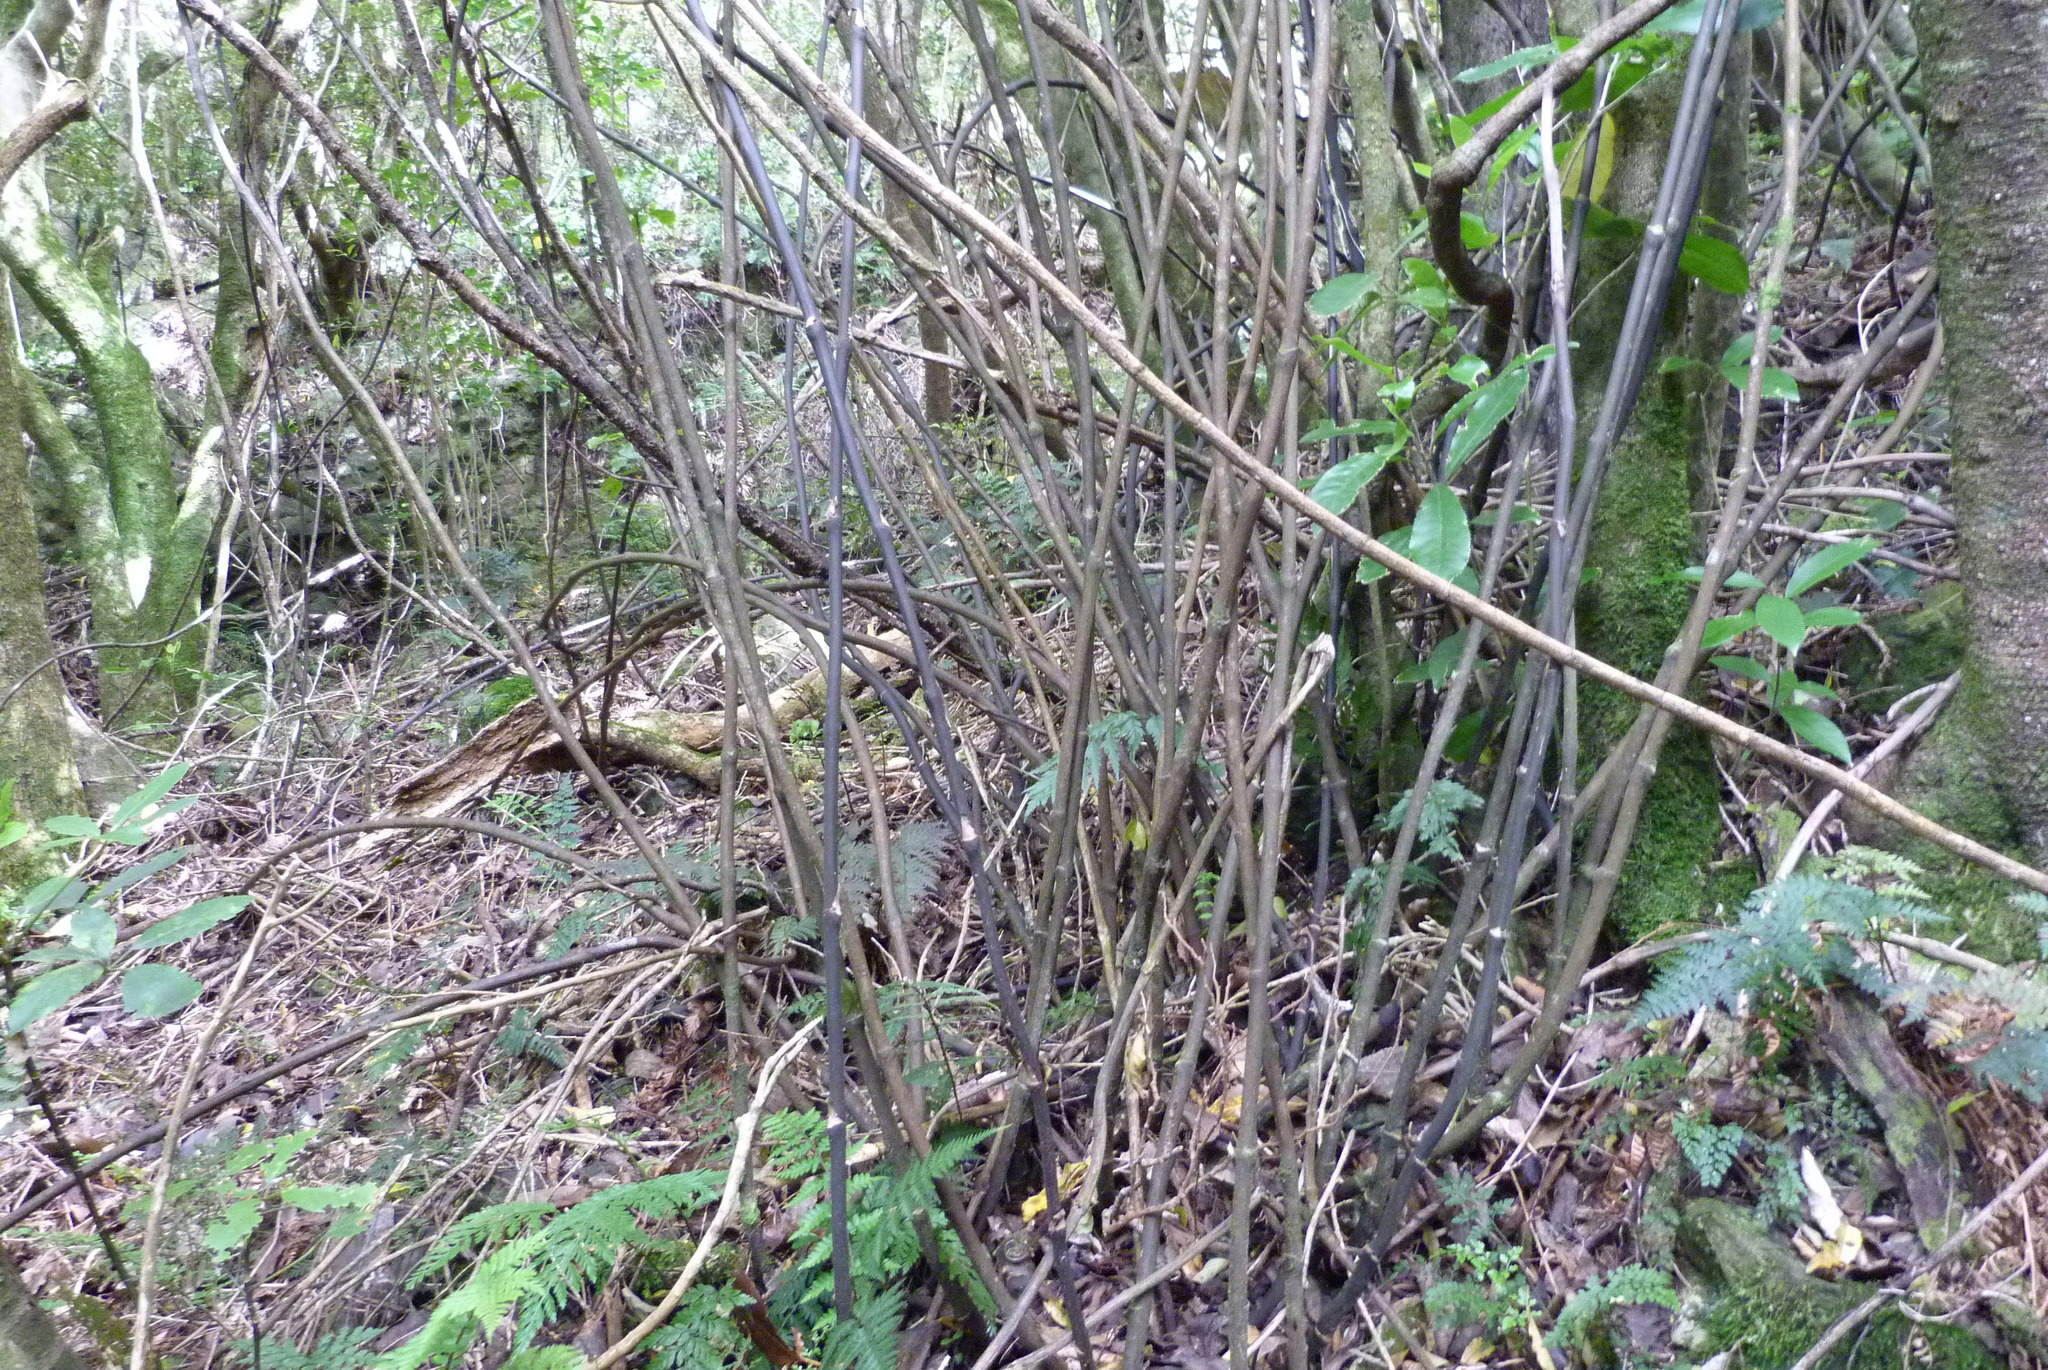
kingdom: Plantae
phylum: Tracheophyta
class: Liliopsida
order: Liliales
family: Ripogonaceae
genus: Ripogonum
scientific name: Ripogonum scandens
